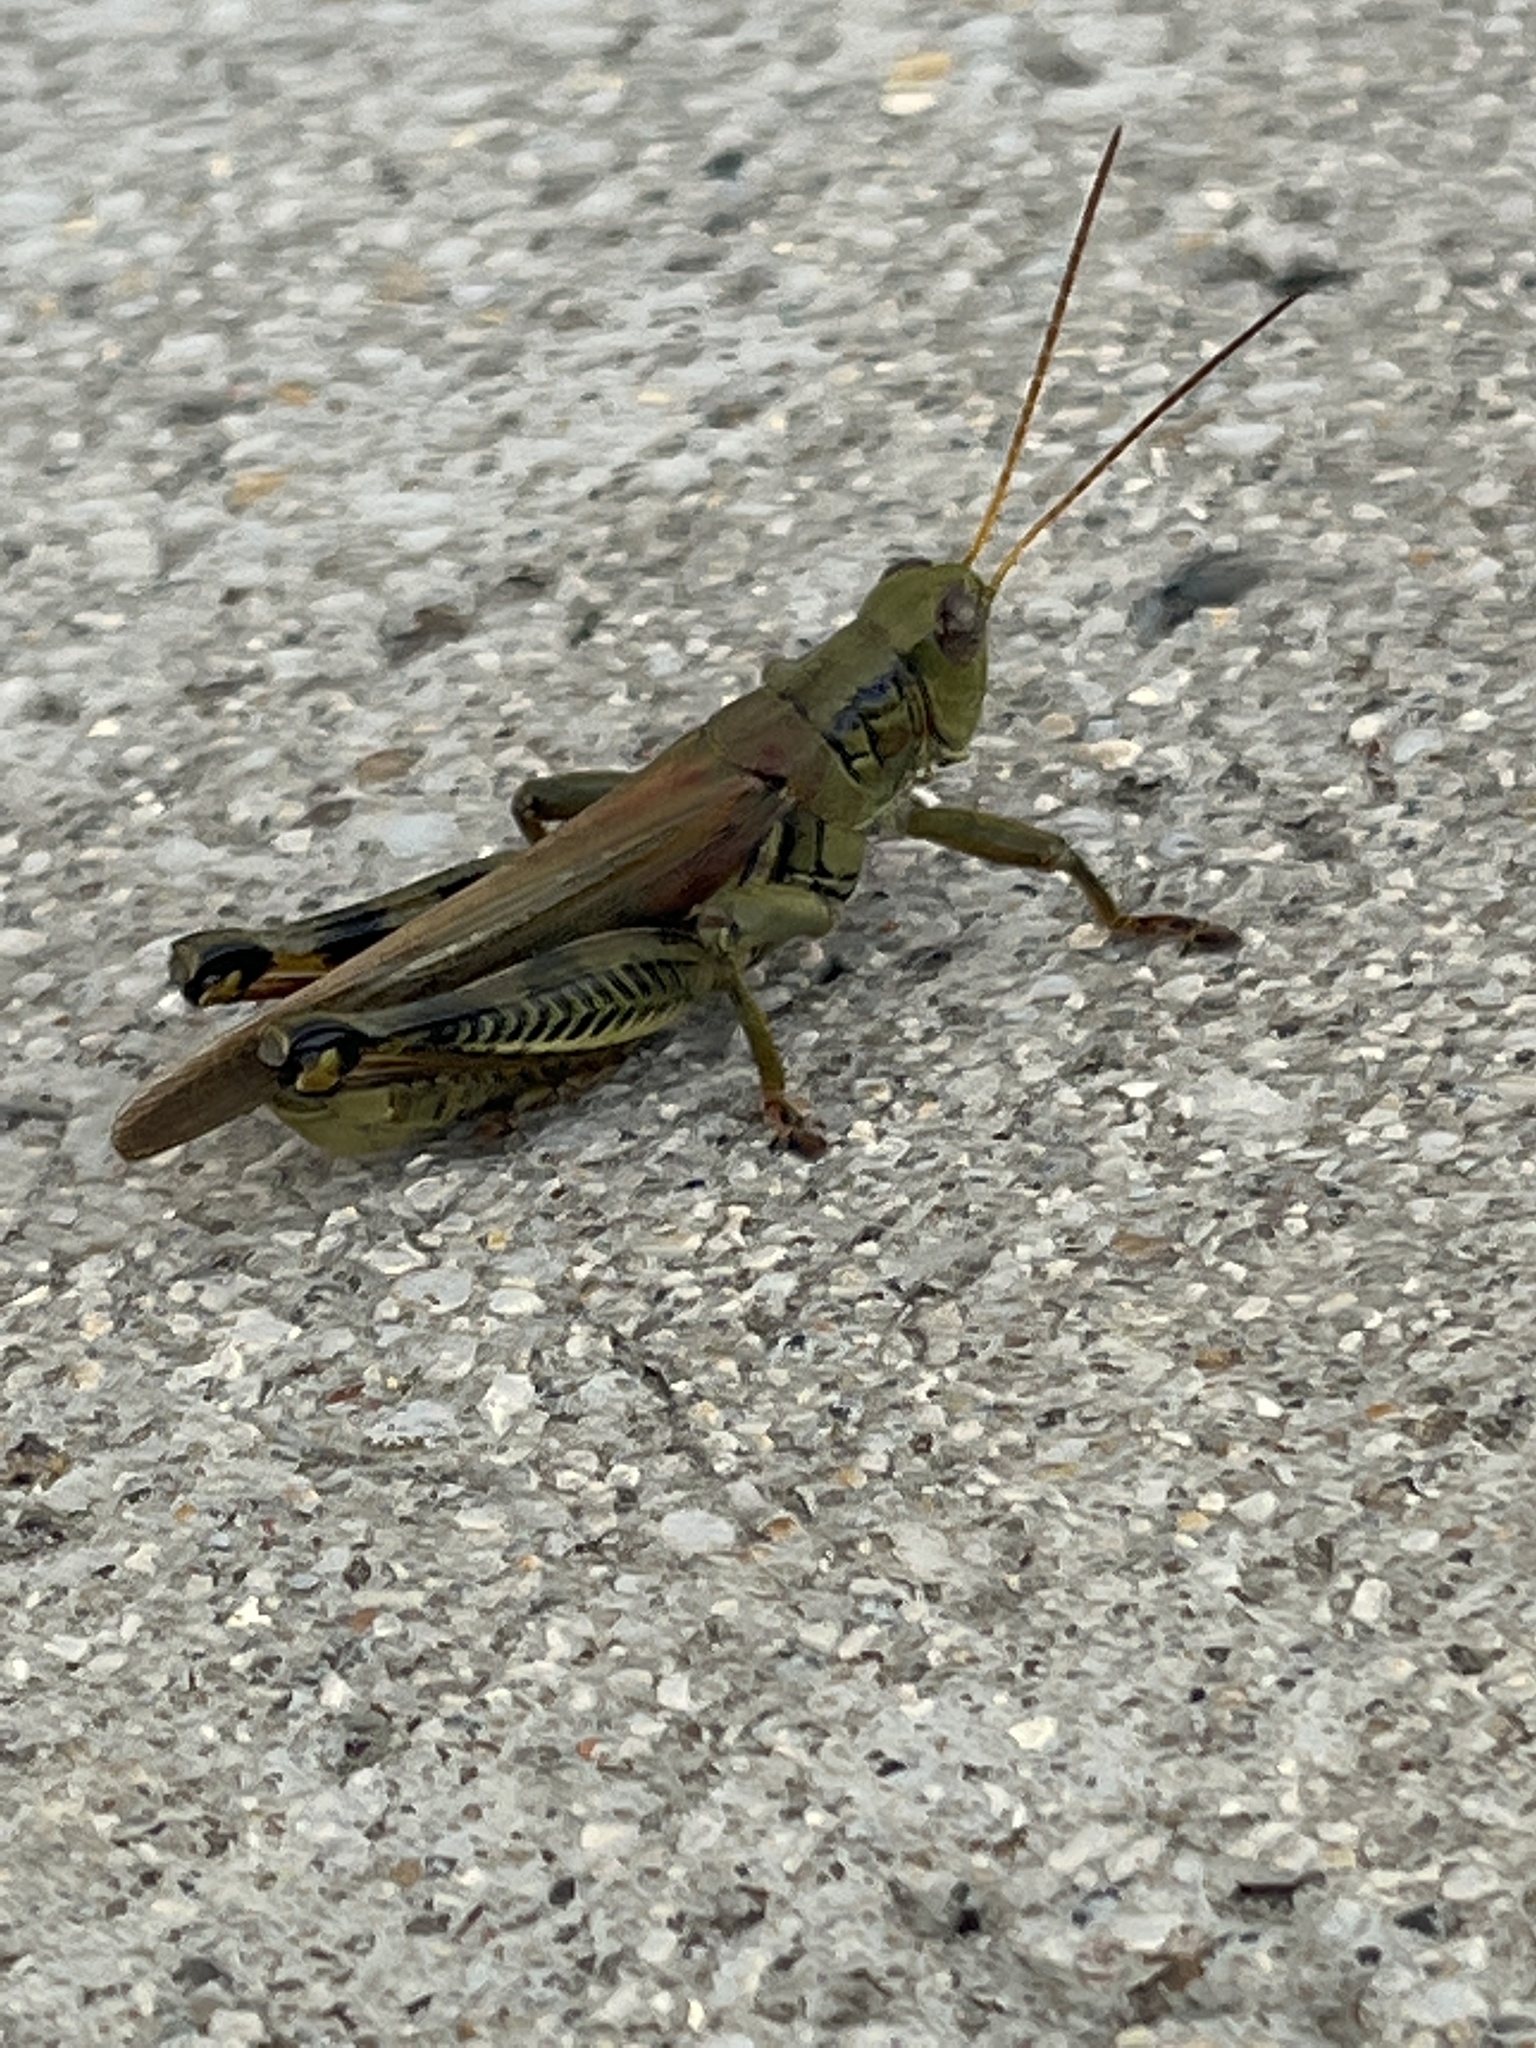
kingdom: Animalia
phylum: Arthropoda
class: Insecta
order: Orthoptera
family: Acrididae
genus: Melanoplus
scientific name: Melanoplus differentialis
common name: Differential grasshopper
